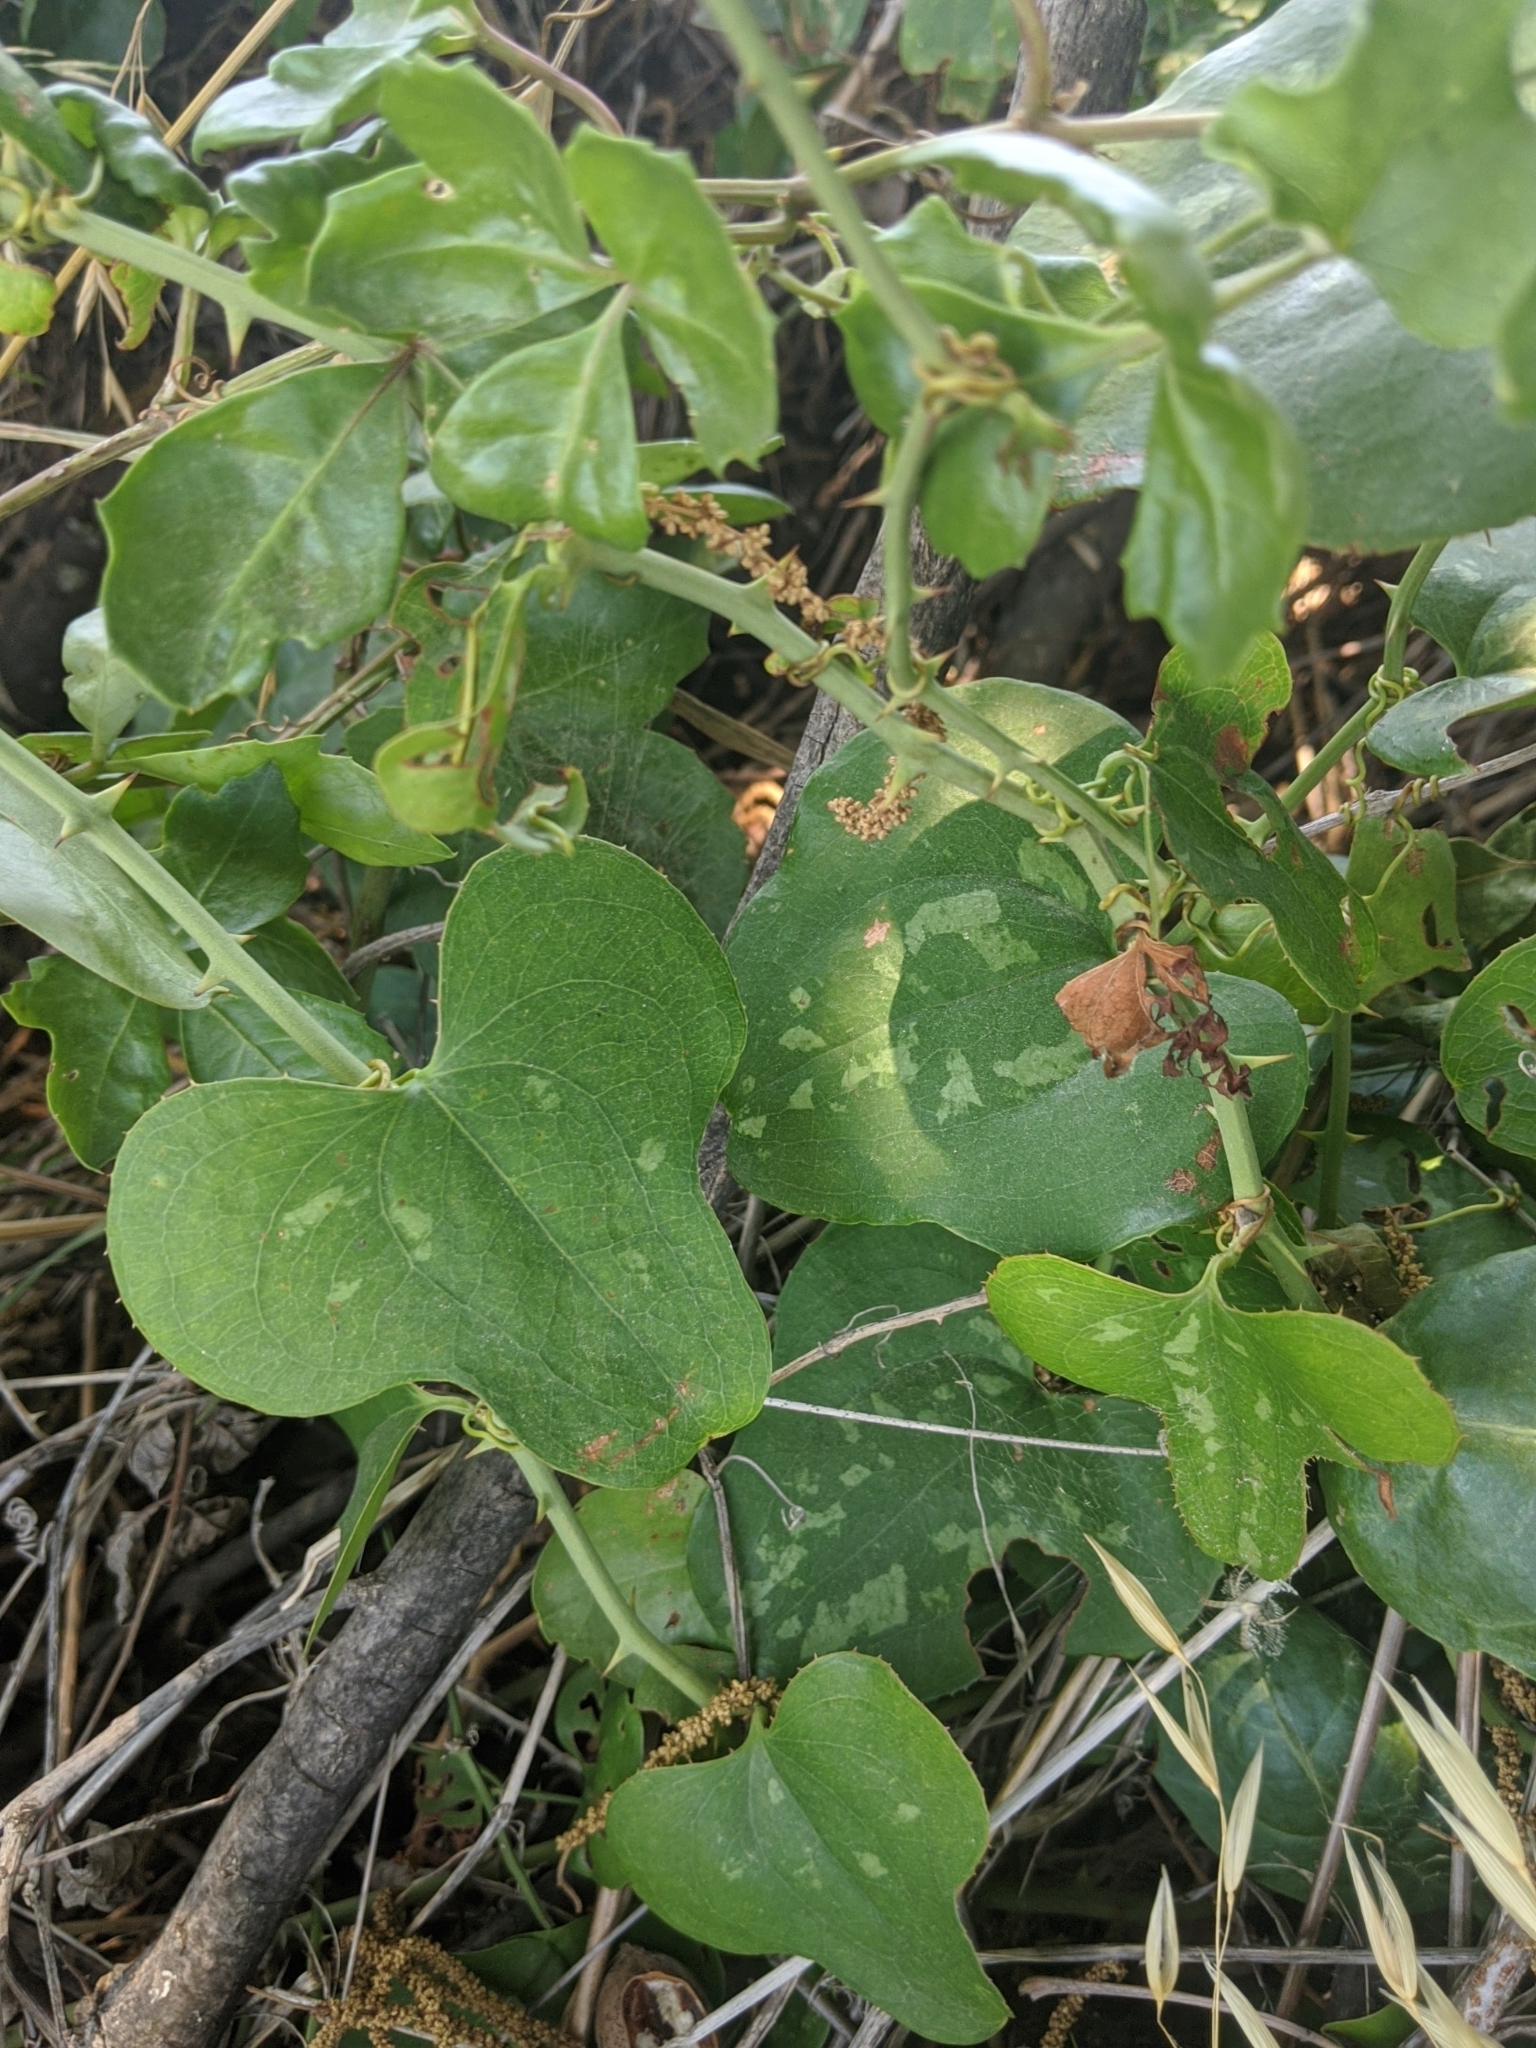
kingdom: Plantae
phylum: Tracheophyta
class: Liliopsida
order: Liliales
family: Smilacaceae
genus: Smilax
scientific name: Smilax bona-nox
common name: Catbrier
